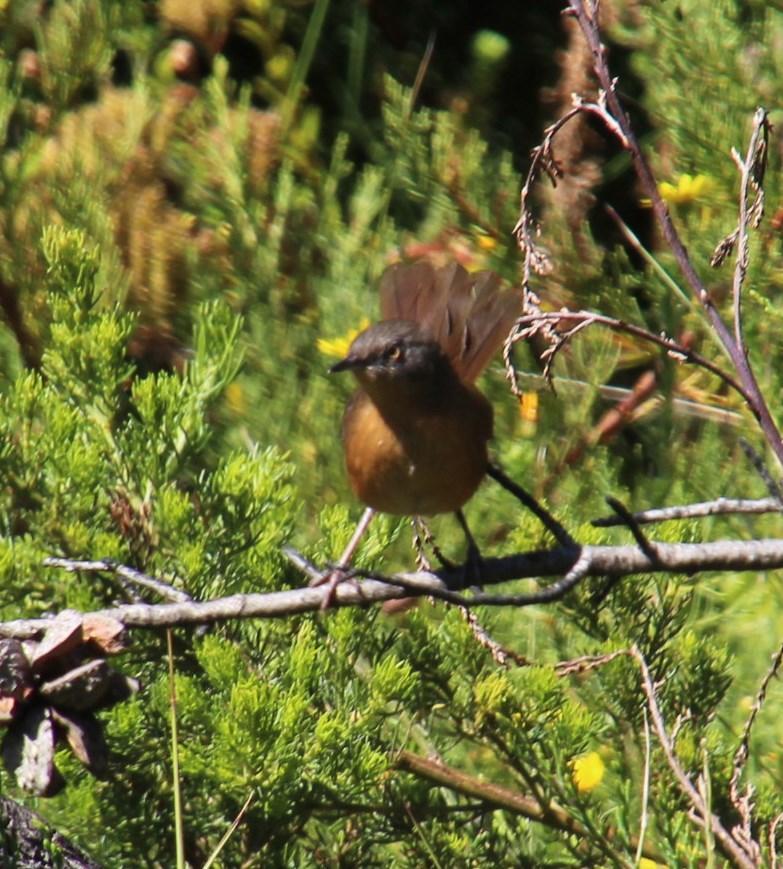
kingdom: Animalia
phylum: Chordata
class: Aves
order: Passeriformes
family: Macrosphenidae
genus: Cryptillas
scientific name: Cryptillas victorini
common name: Victorin's warbler
